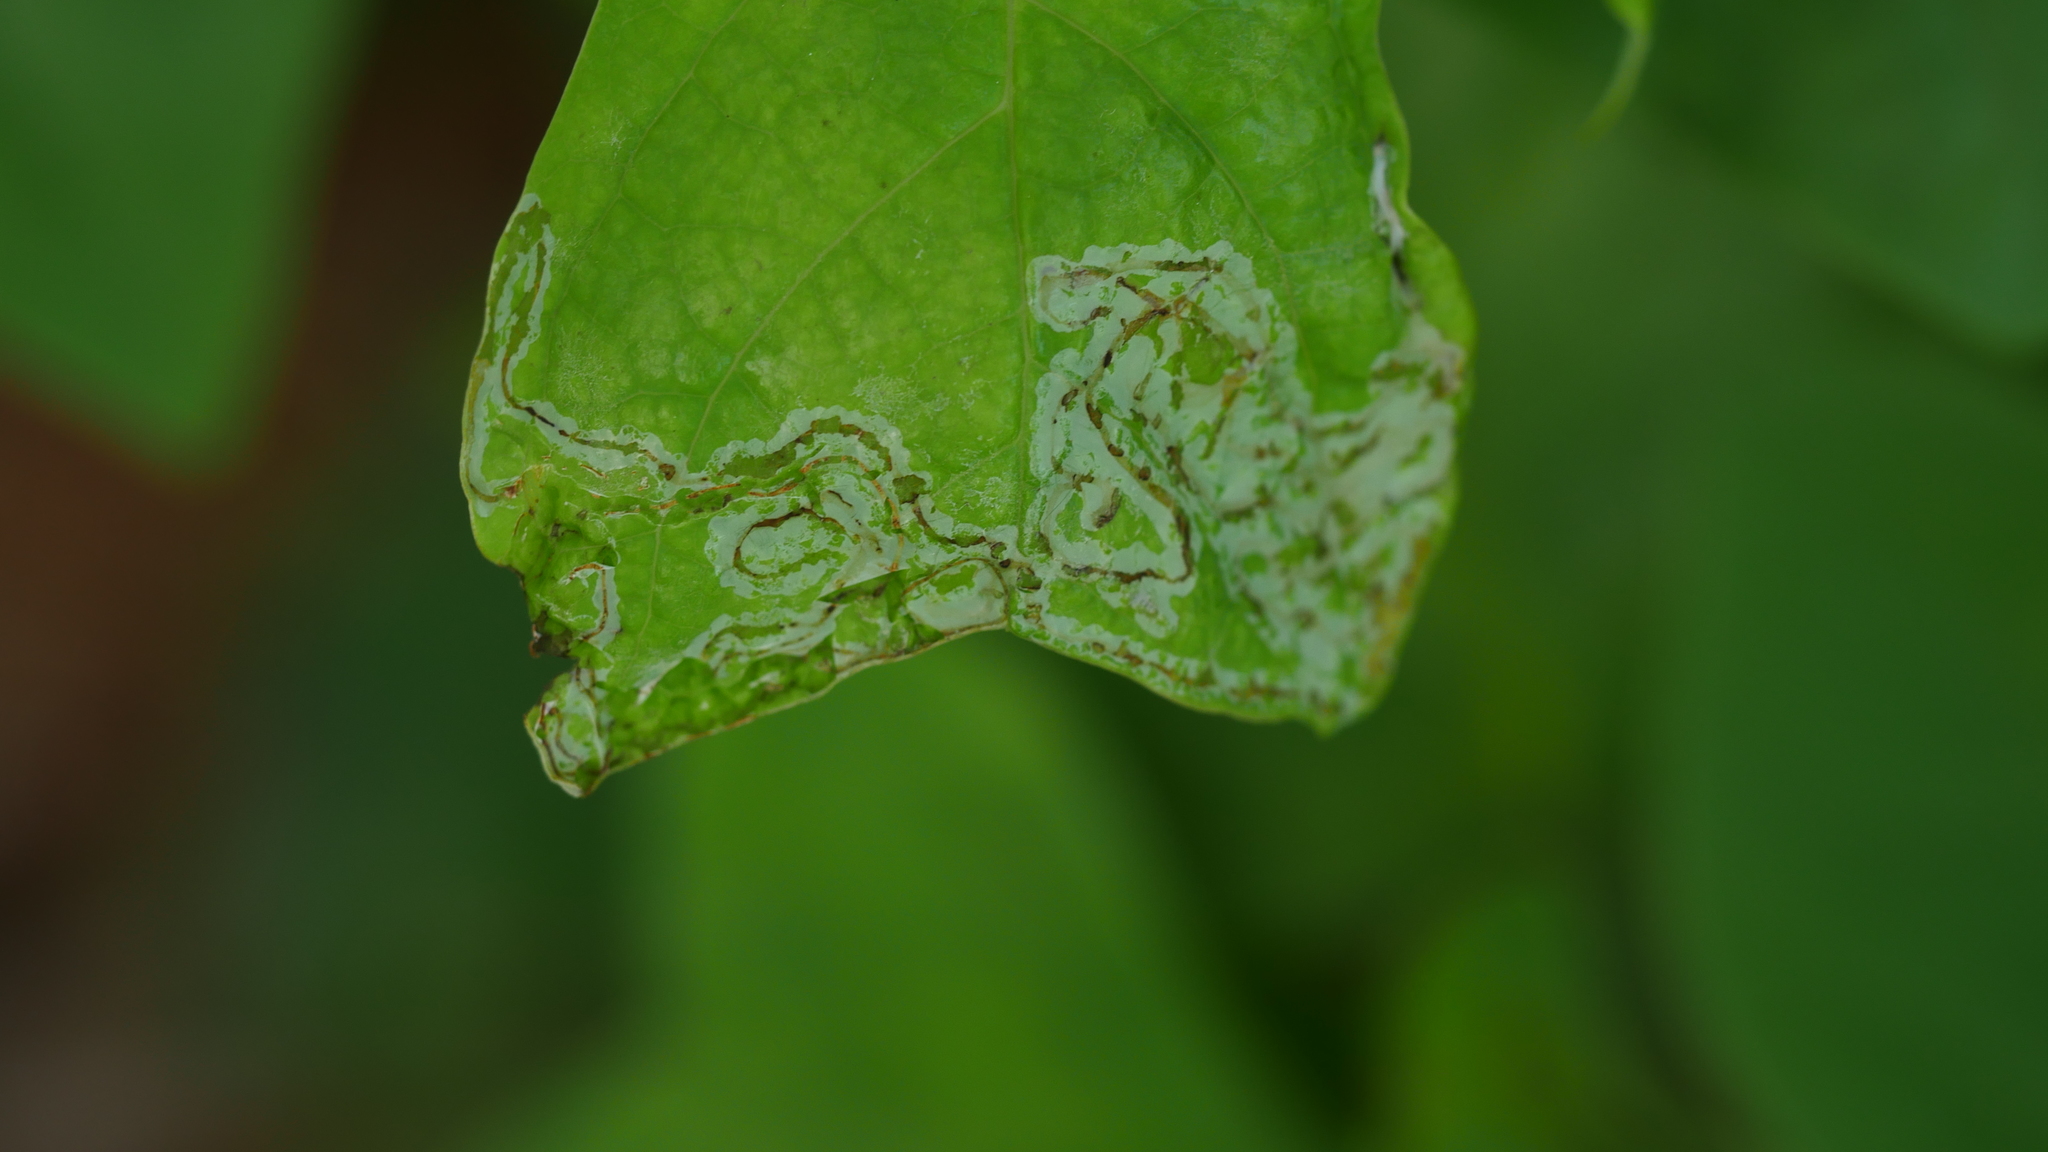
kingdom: Animalia
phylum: Arthropoda
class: Insecta
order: Lepidoptera
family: Gracillariidae
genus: Phyllocnistis
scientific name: Phyllocnistis liriodendronella
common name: Tulip tree leaf miner
